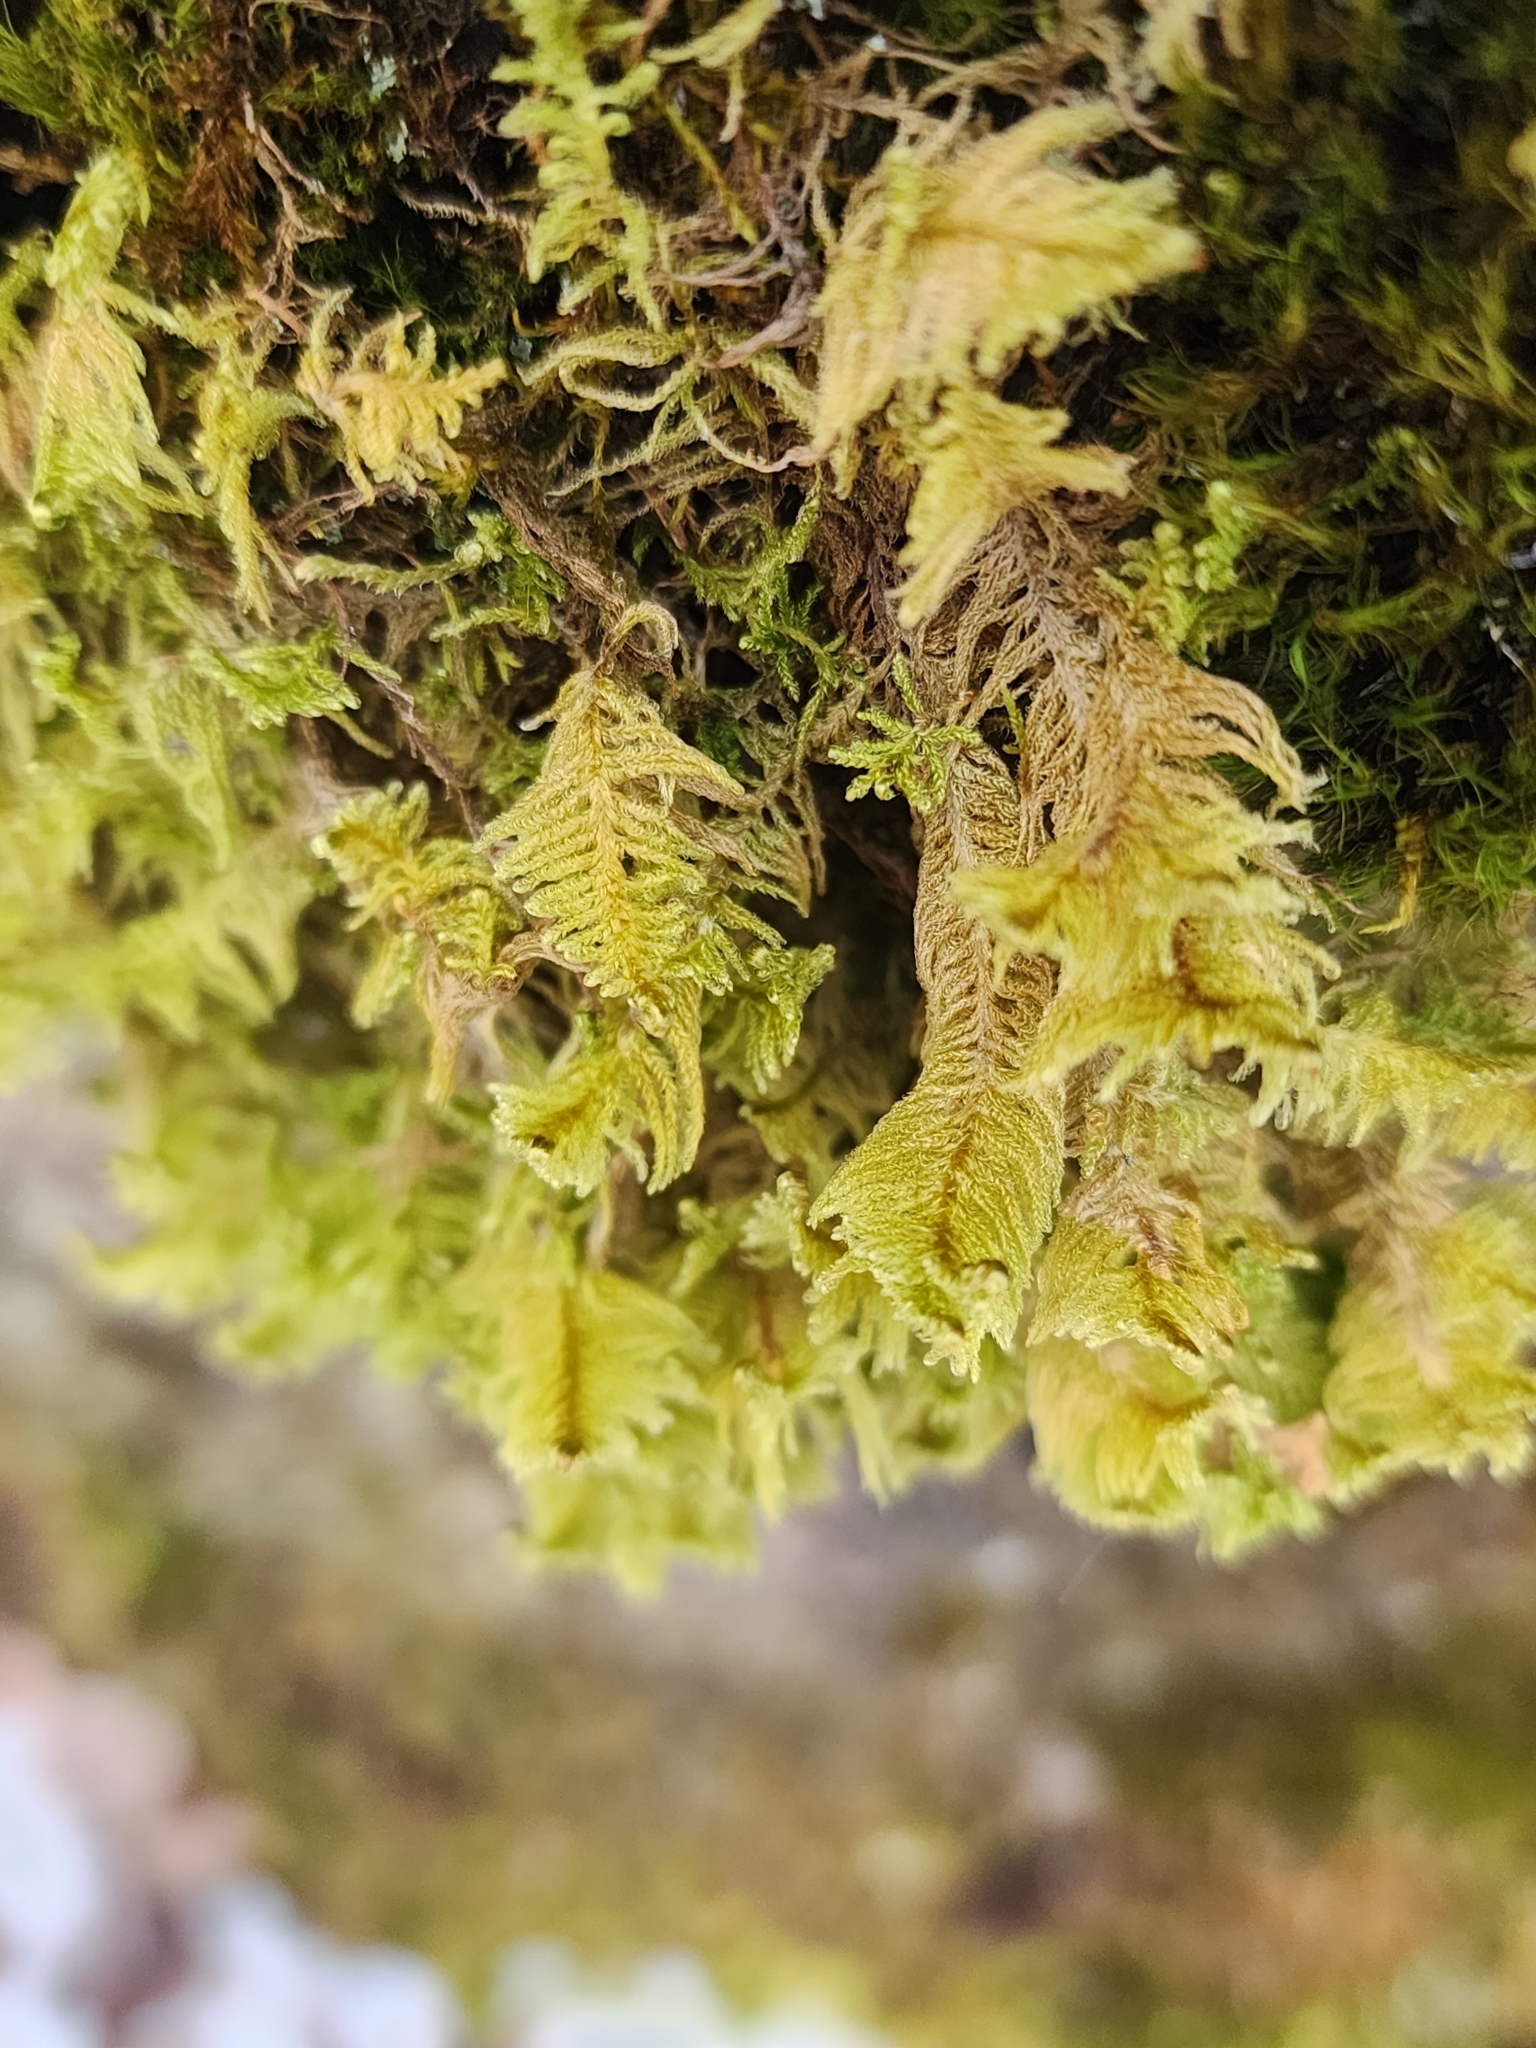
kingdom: Plantae
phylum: Bryophyta
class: Bryopsida
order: Hypnales
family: Pylaisiaceae
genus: Ptilium
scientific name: Ptilium crista-castrensis
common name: Knight's plume moss
